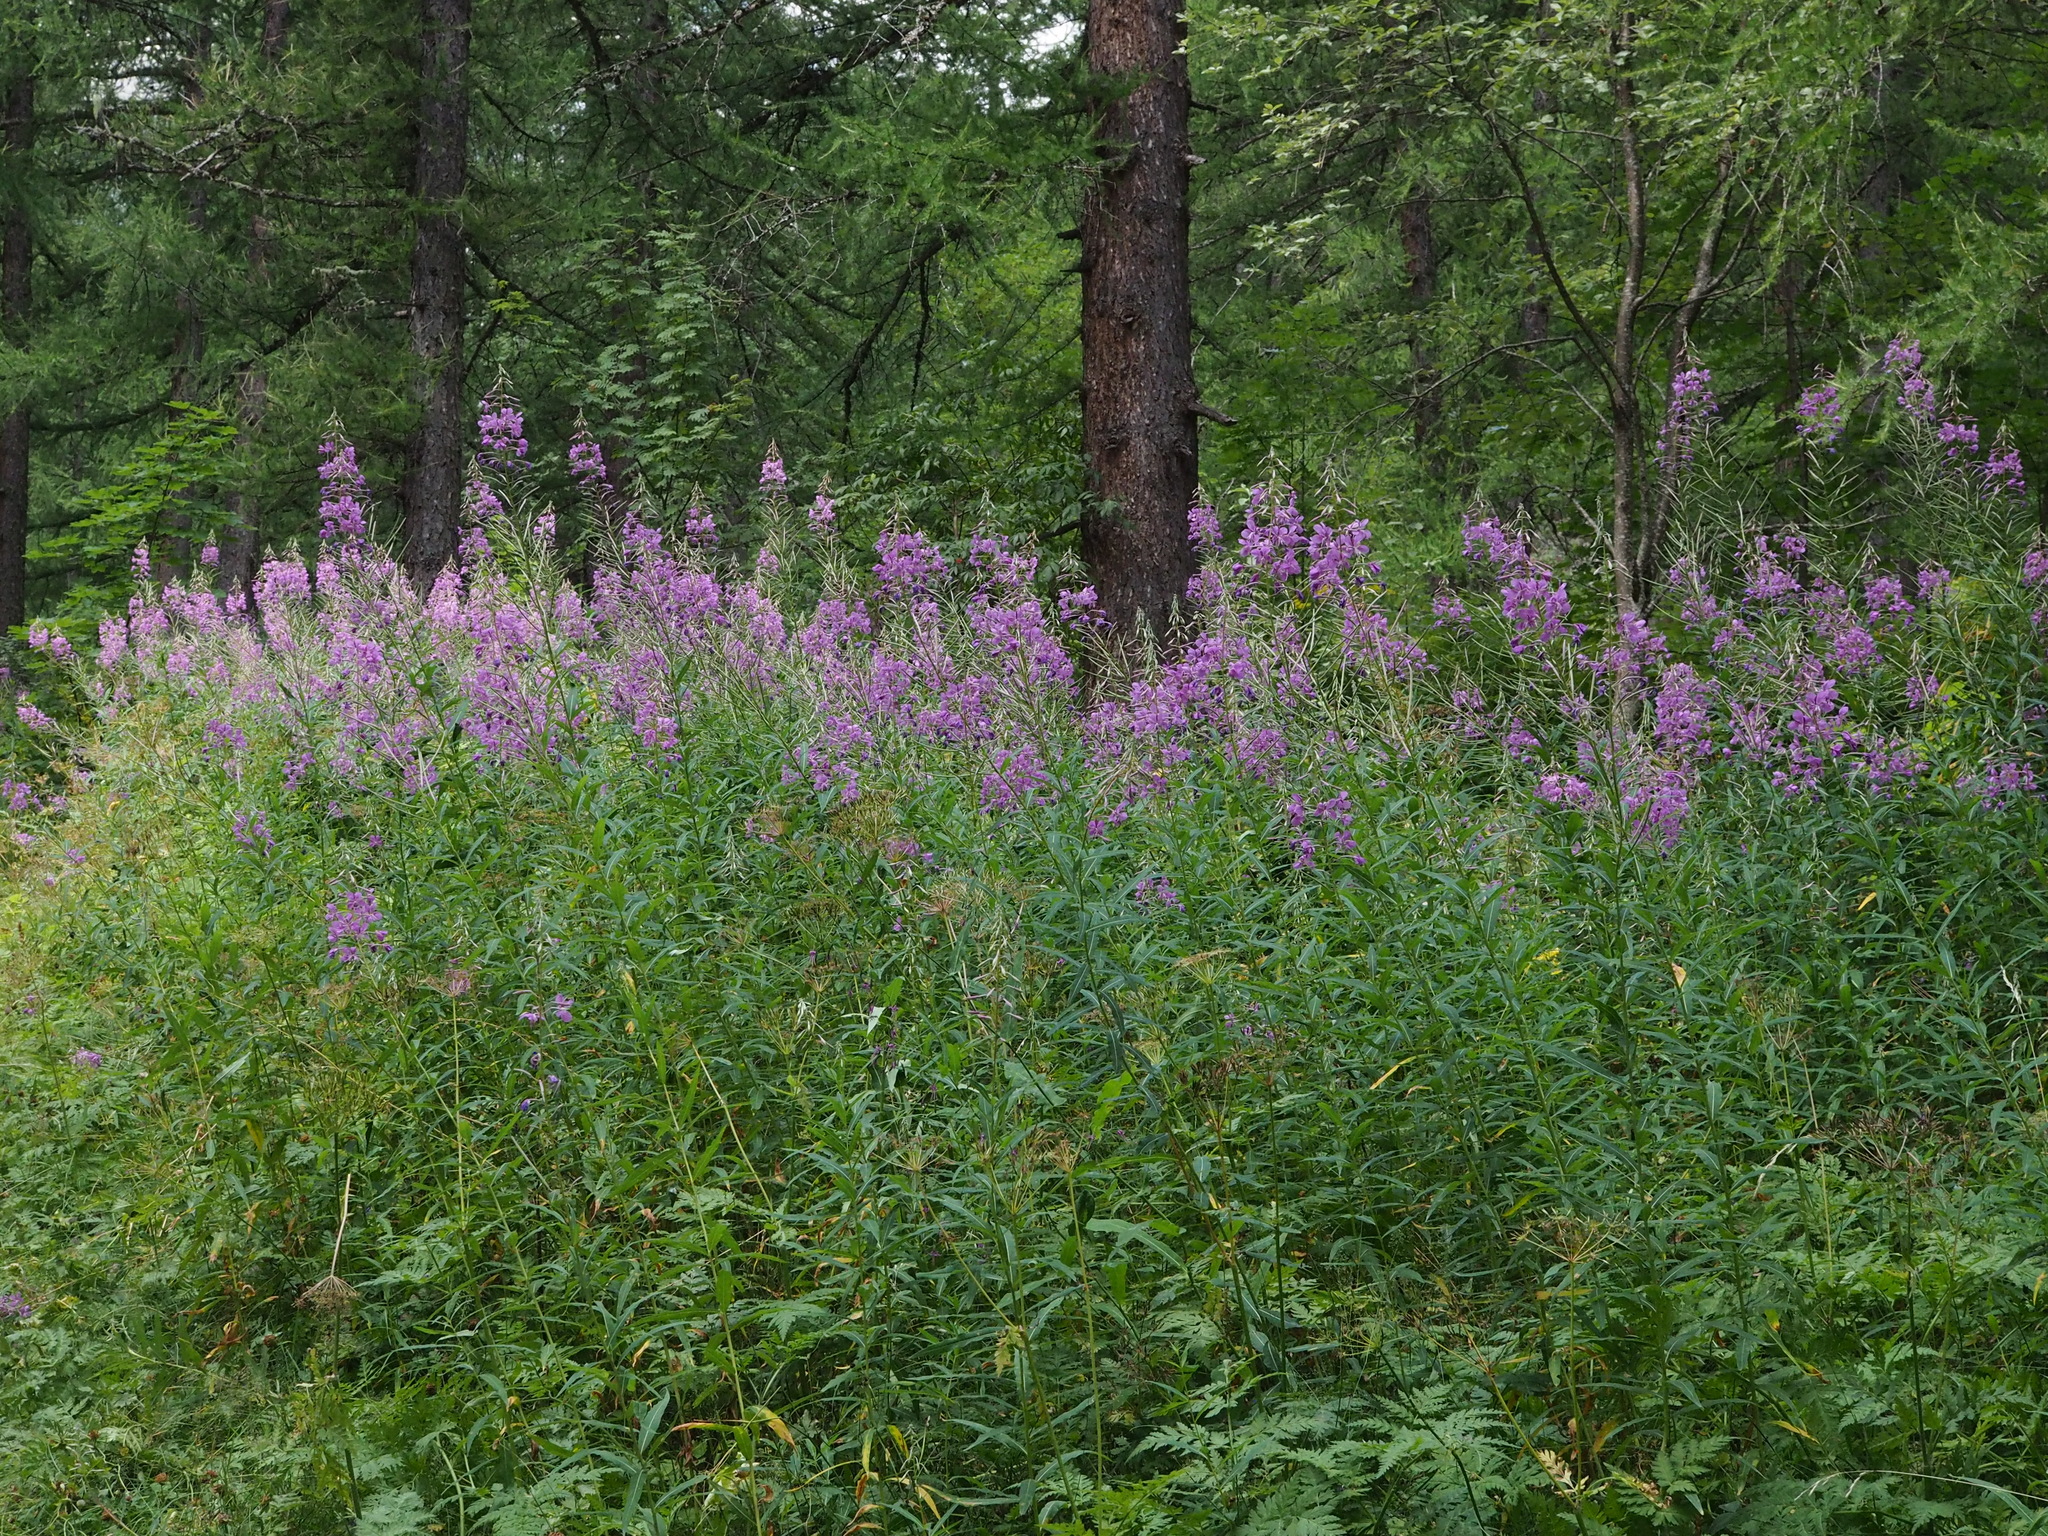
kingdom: Plantae
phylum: Tracheophyta
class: Magnoliopsida
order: Myrtales
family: Onagraceae
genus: Chamaenerion
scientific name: Chamaenerion angustifolium
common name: Fireweed
